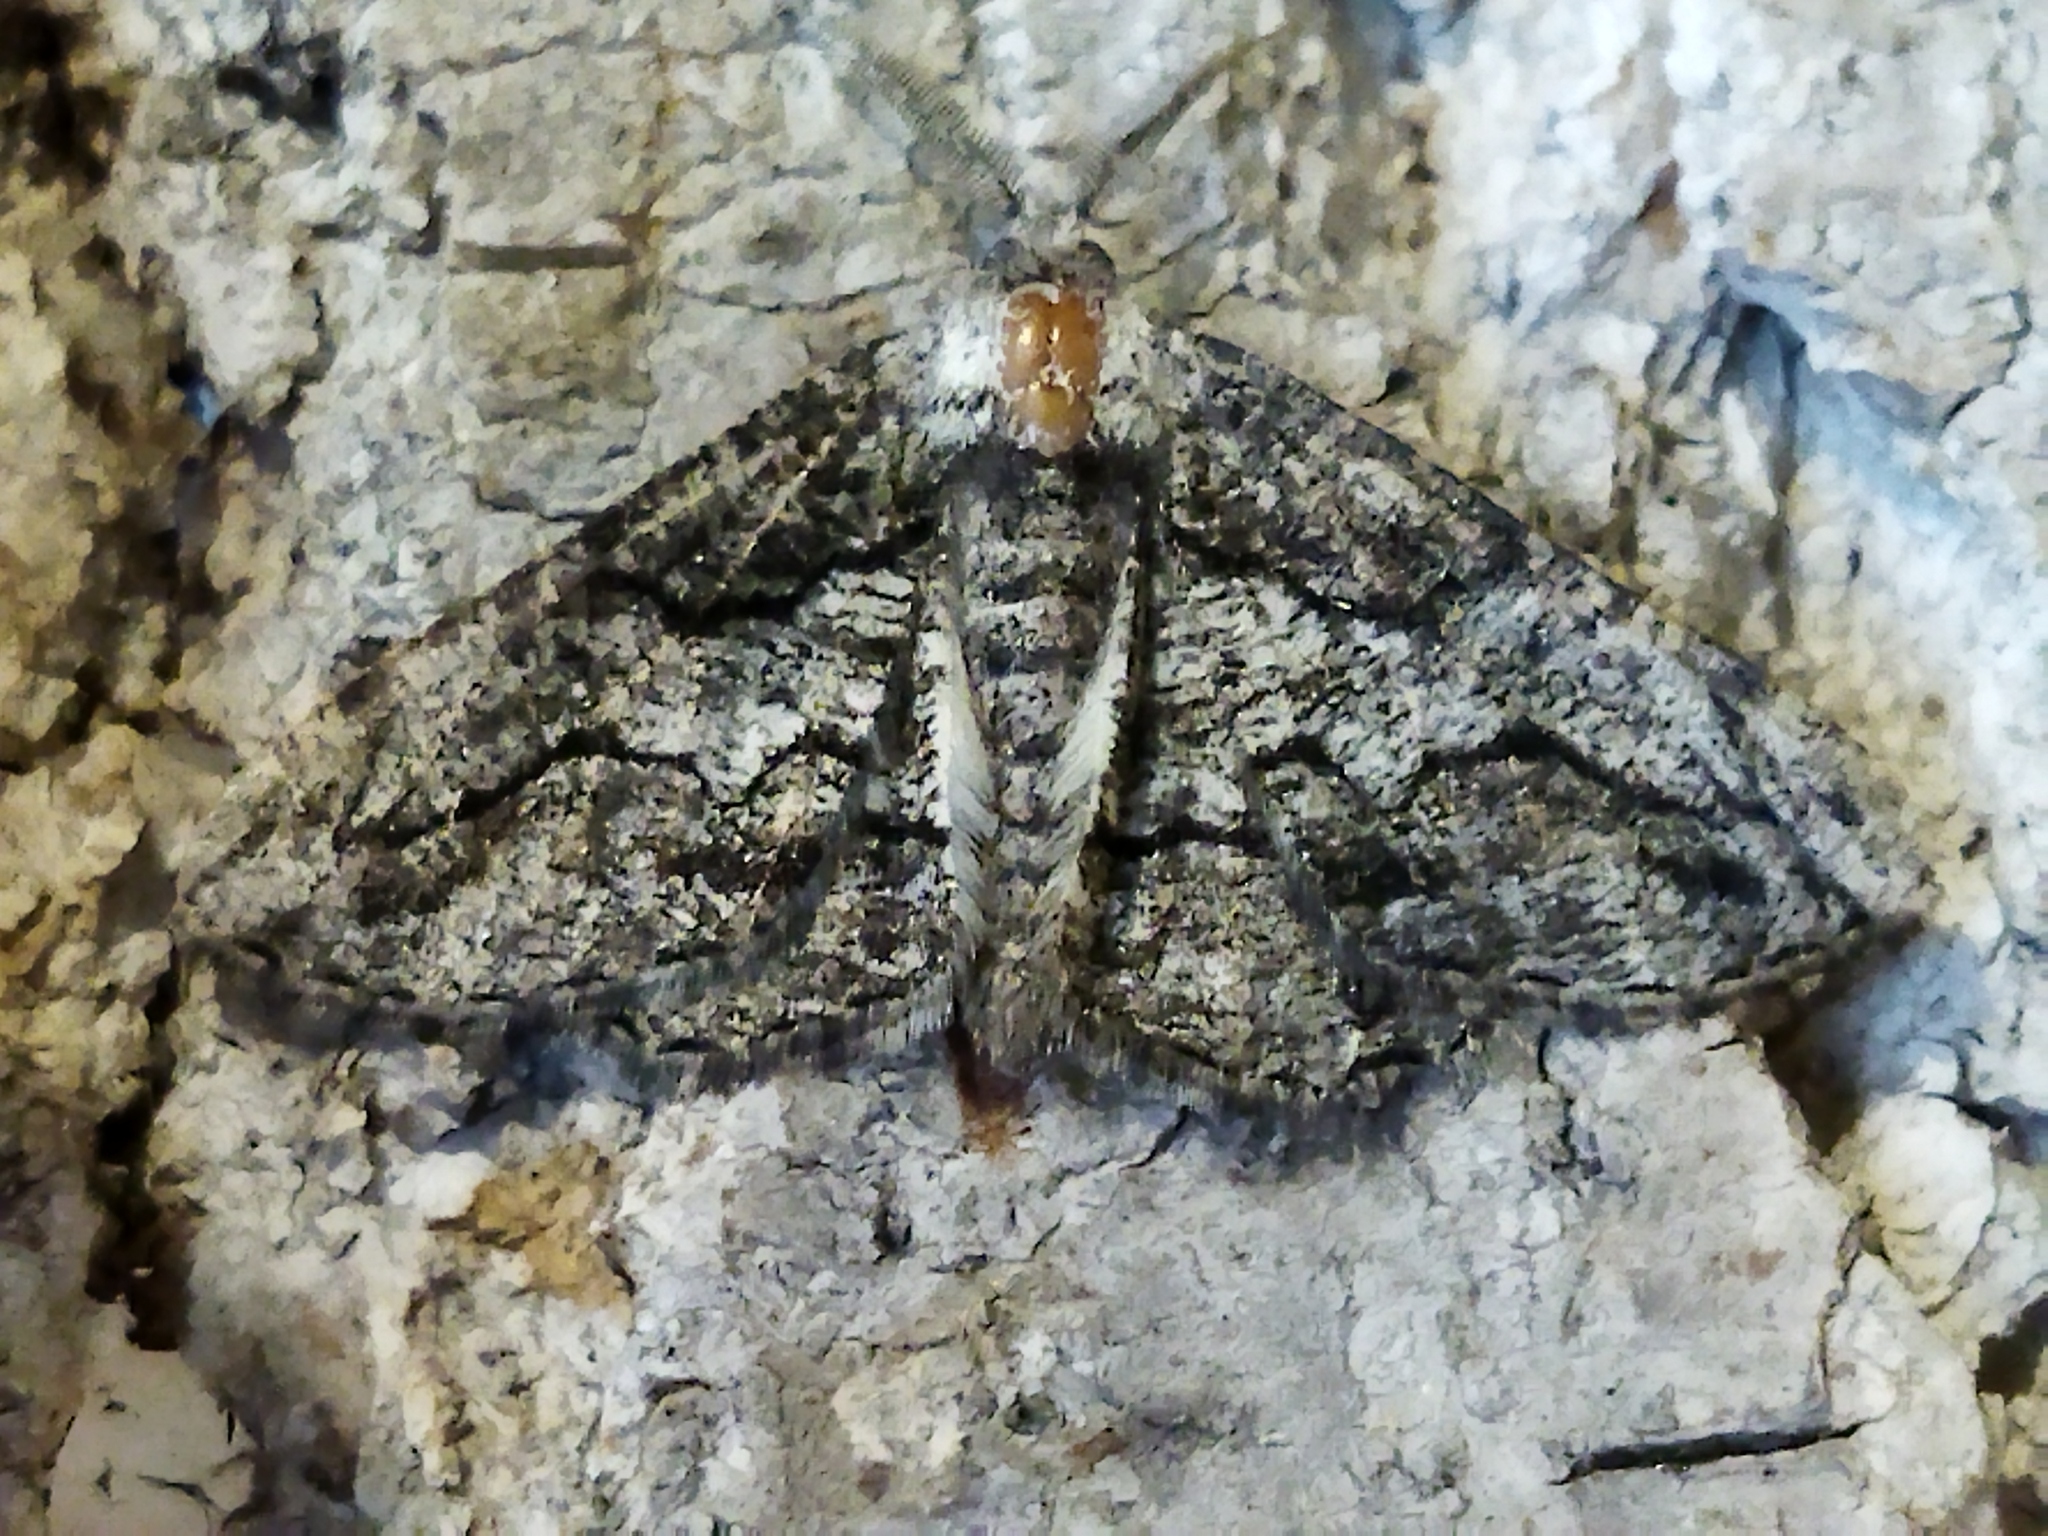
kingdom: Animalia
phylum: Arthropoda
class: Insecta
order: Lepidoptera
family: Geometridae
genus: Synopsia
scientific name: Synopsia sociaria
